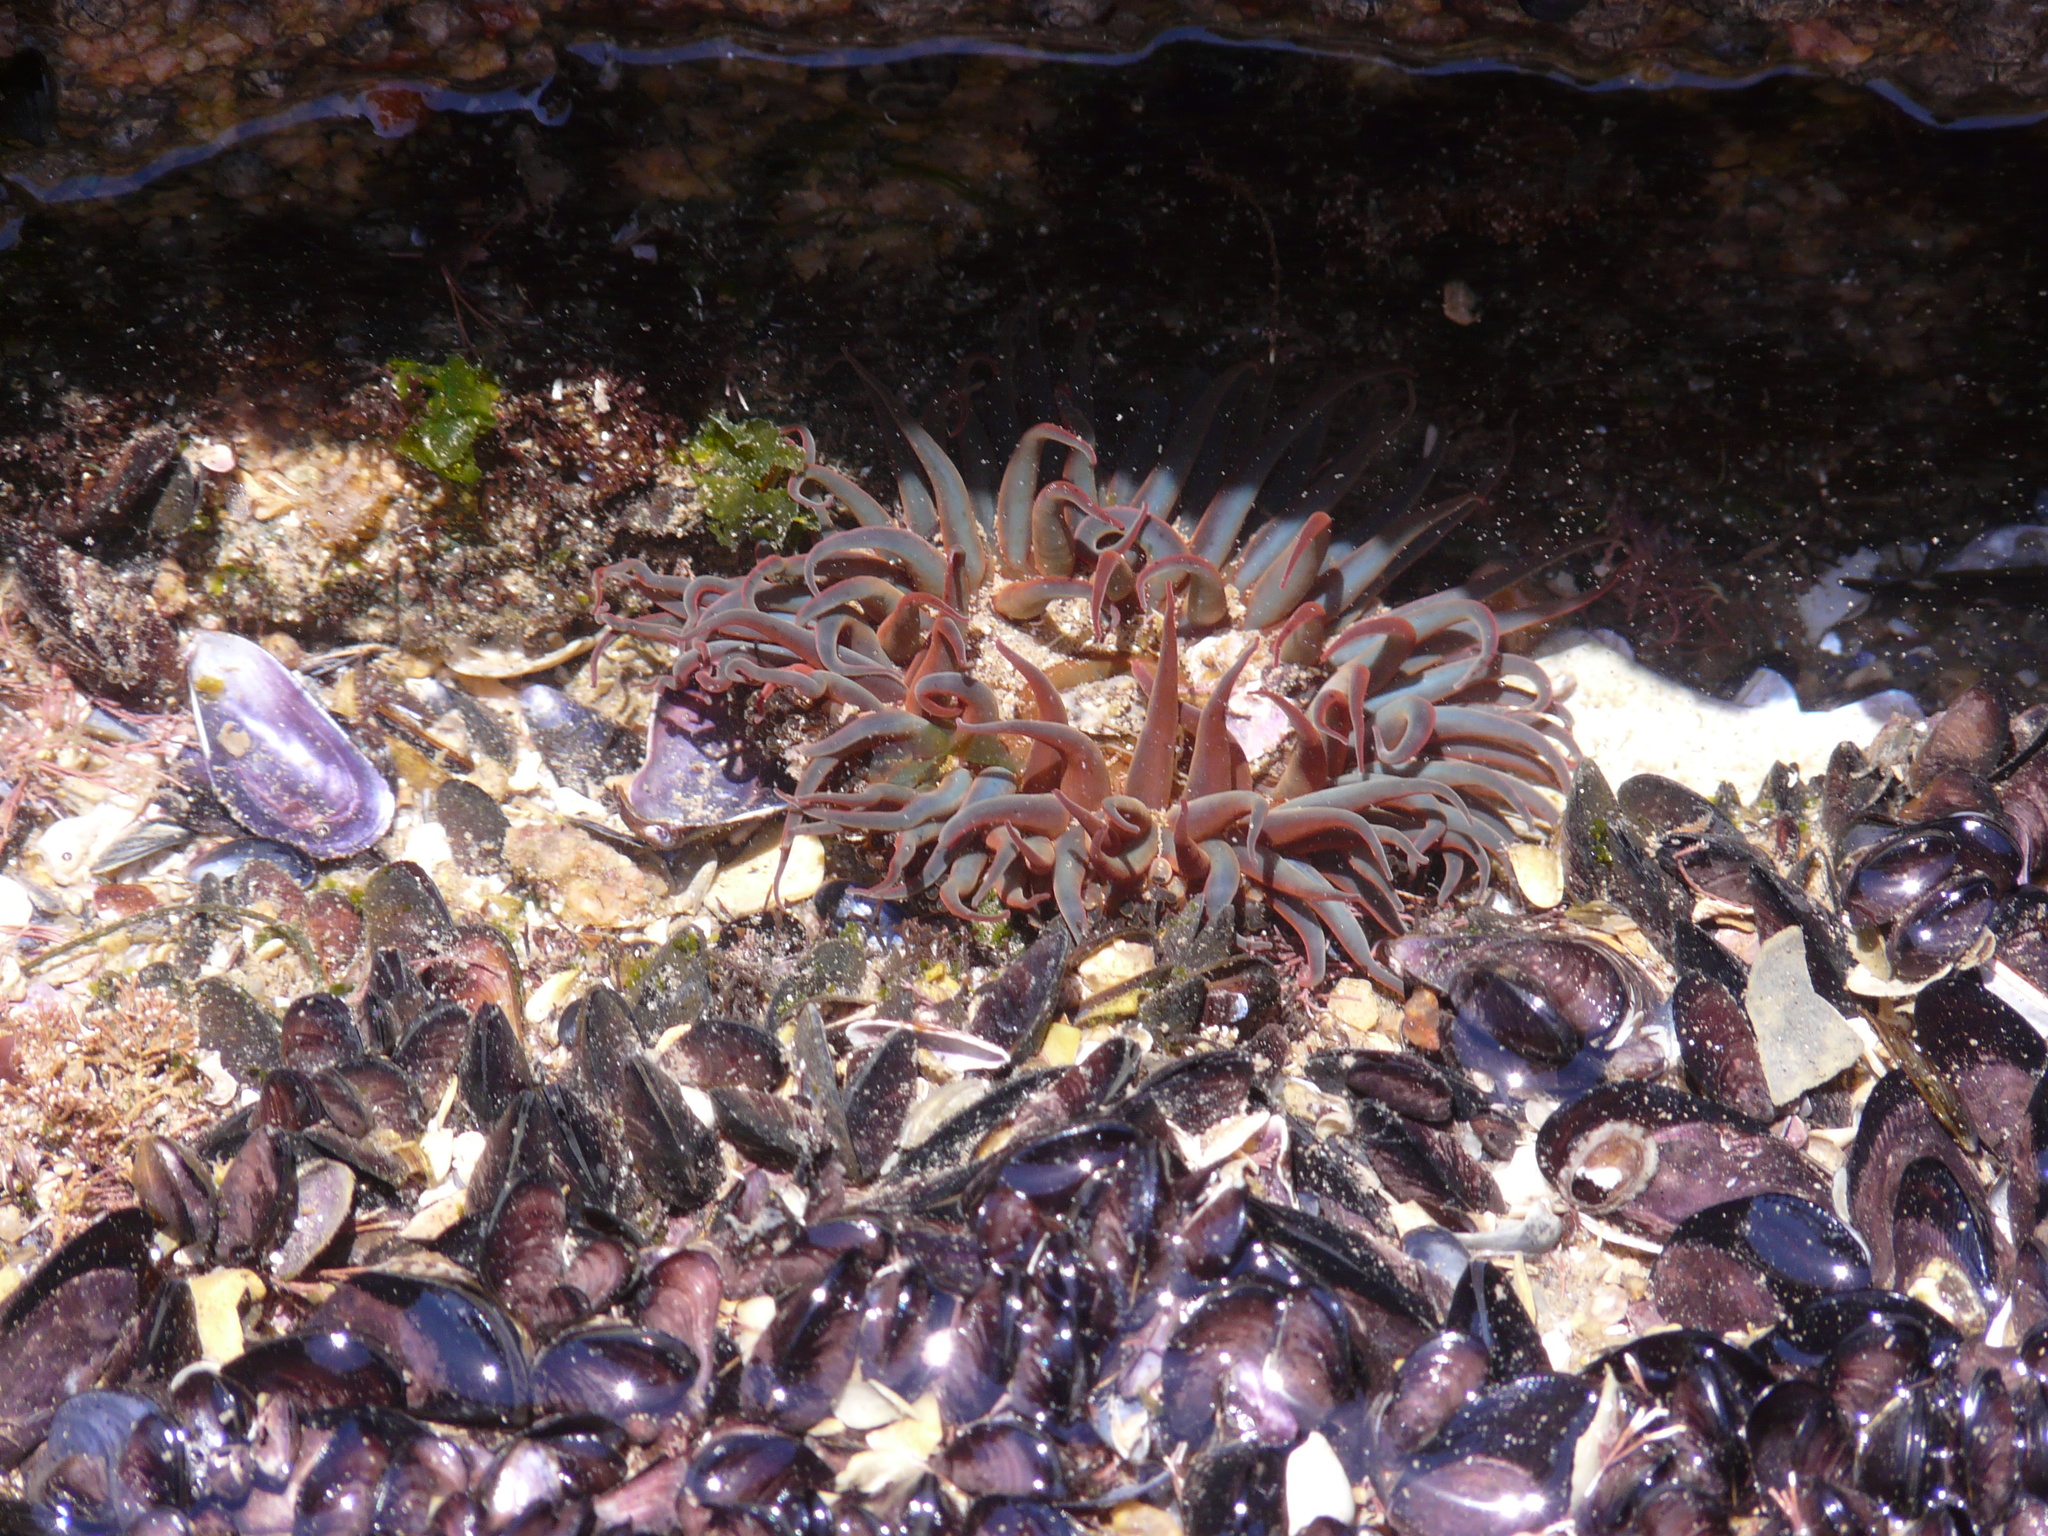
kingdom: Animalia
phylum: Cnidaria
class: Anthozoa
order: Actiniaria
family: Actiniidae
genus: Bunodosoma
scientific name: Bunodosoma cangicum
